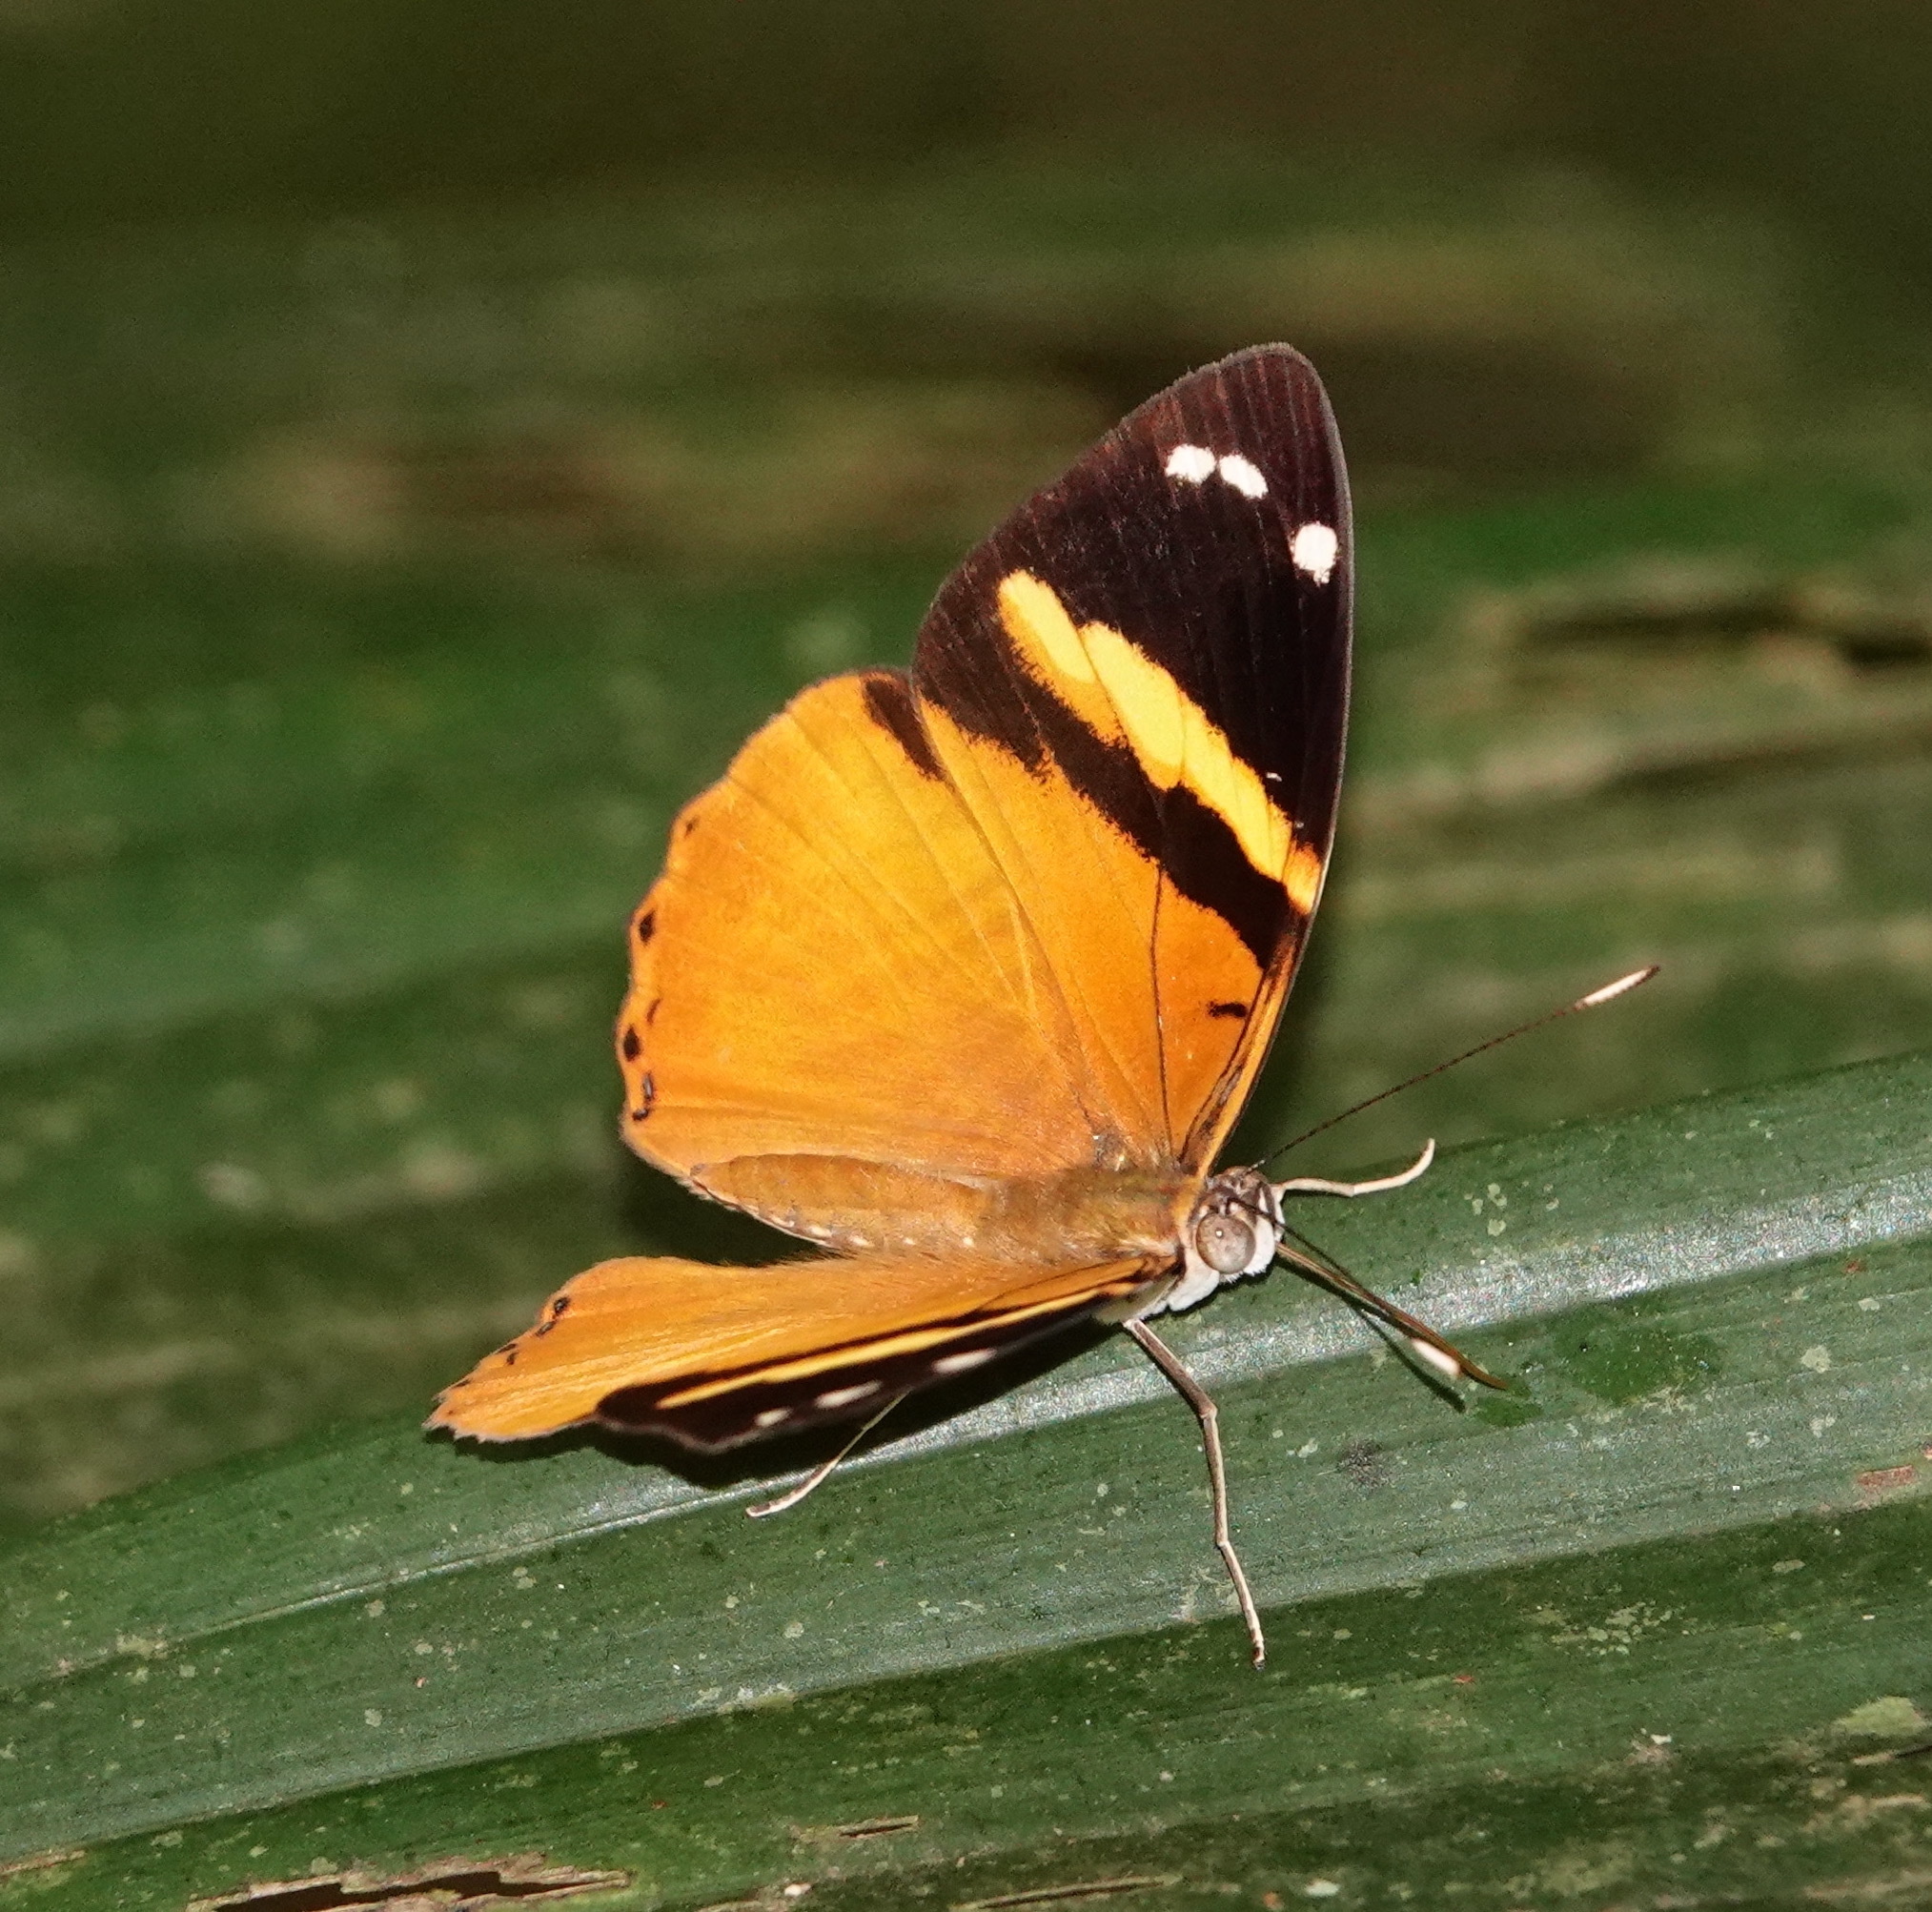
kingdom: Animalia
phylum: Arthropoda
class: Insecta
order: Lepidoptera
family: Nymphalidae
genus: Callizona
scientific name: Callizona acesta
